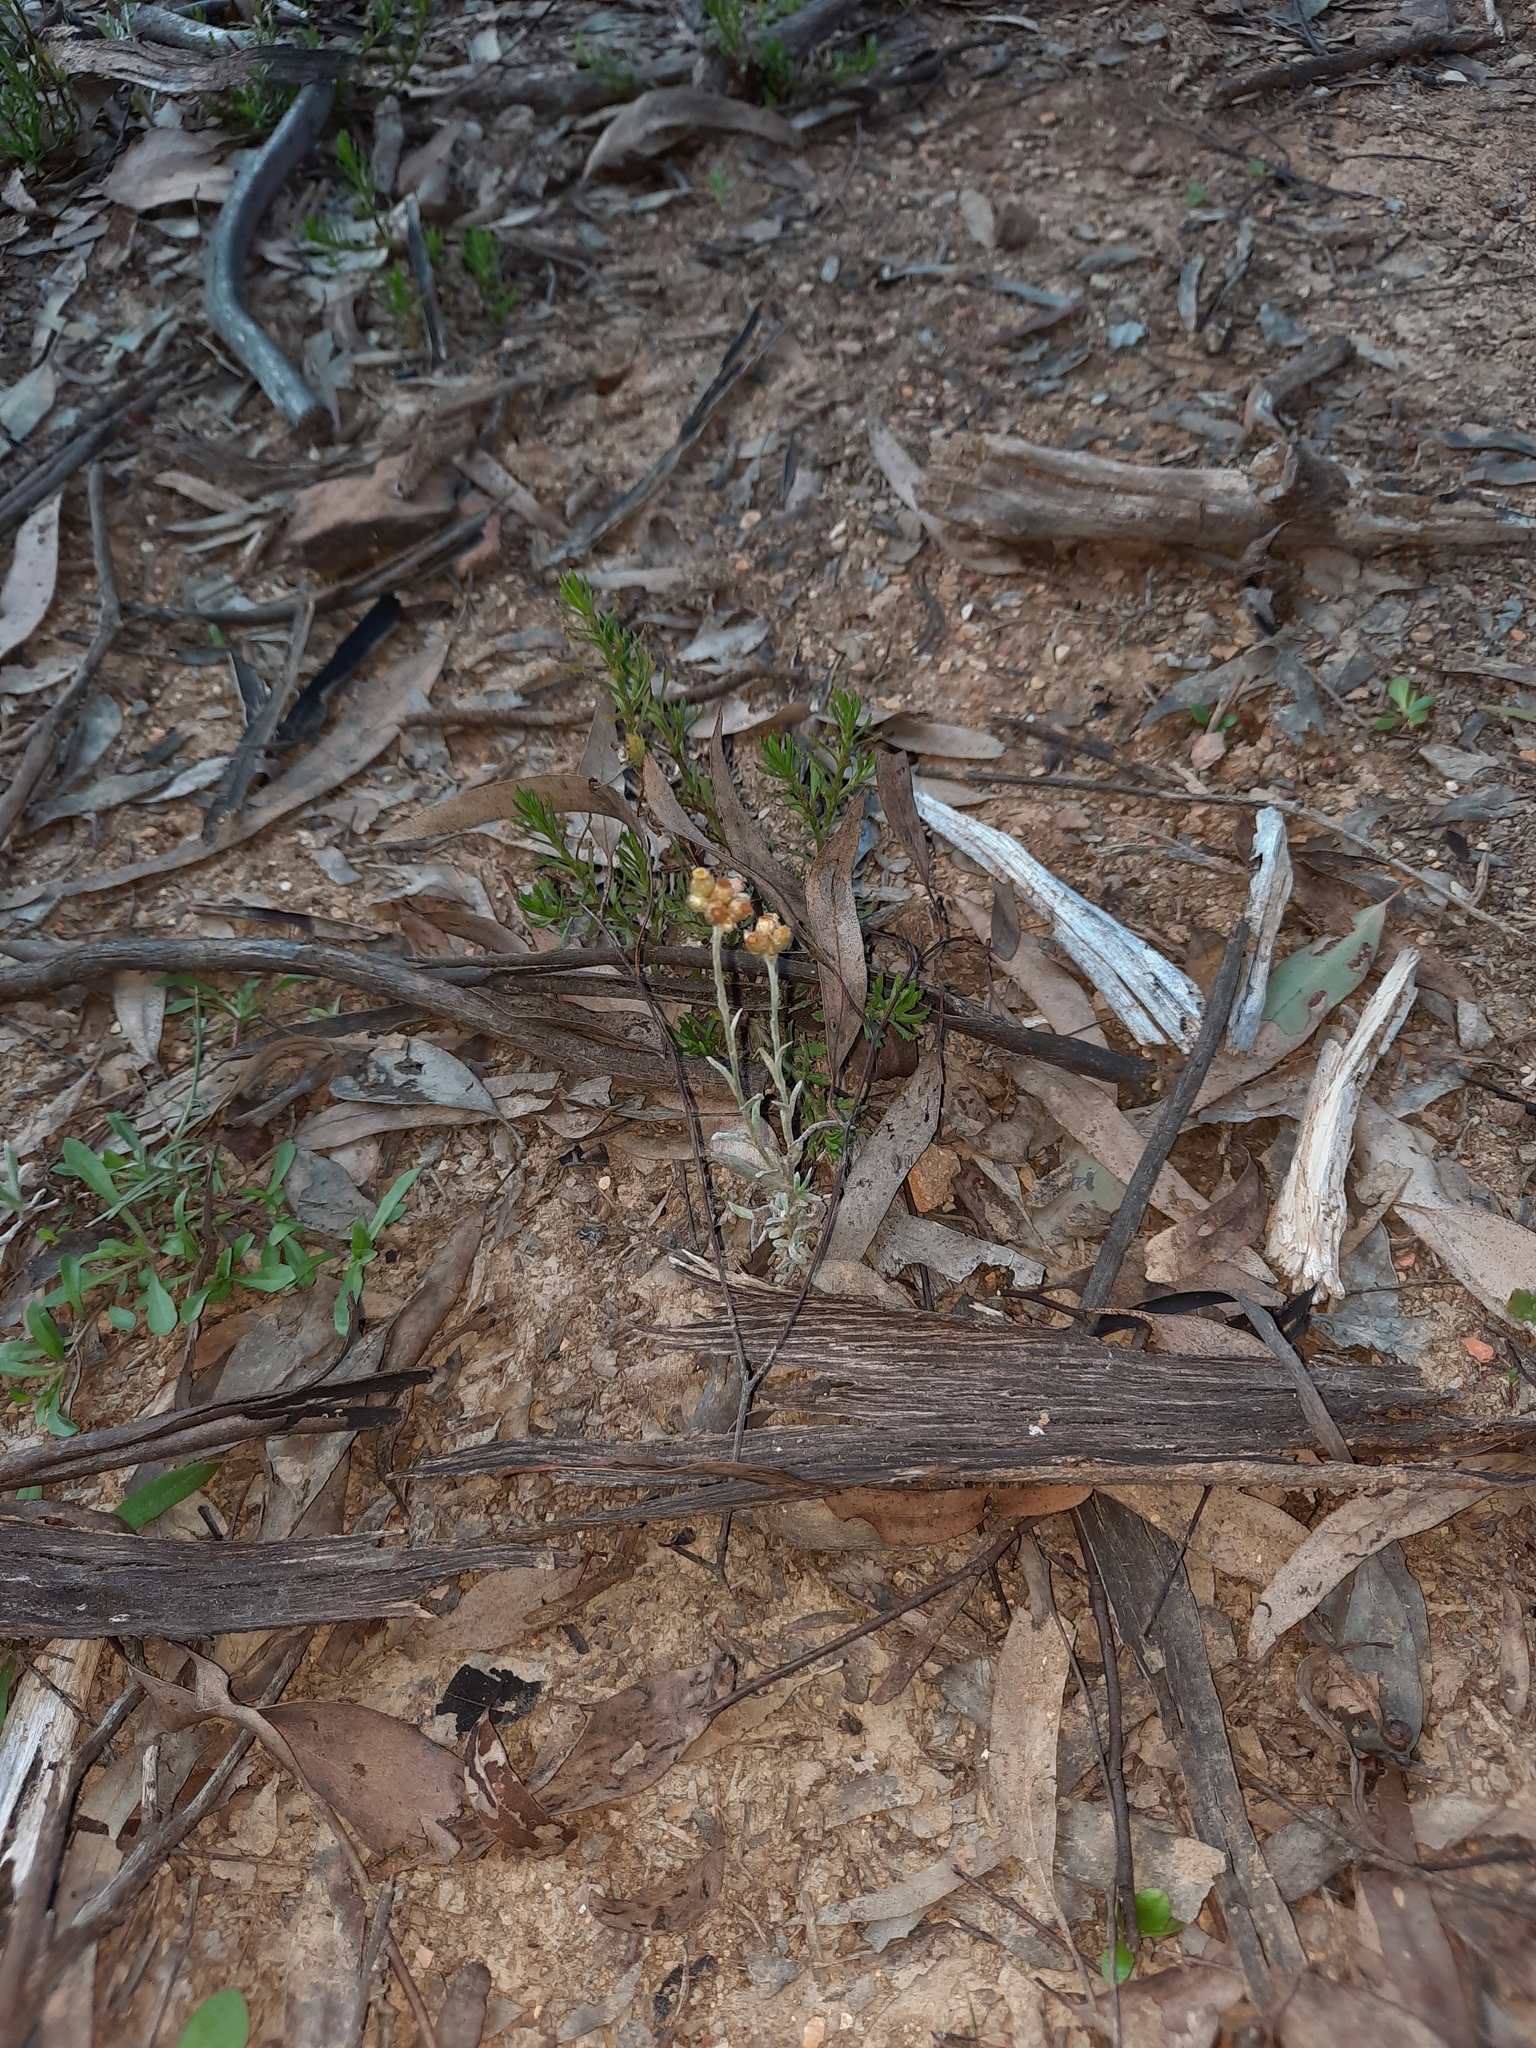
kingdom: Plantae
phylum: Tracheophyta
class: Magnoliopsida
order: Asterales
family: Asteraceae
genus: Helichrysum
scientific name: Helichrysum luteoalbum
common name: Daisy
